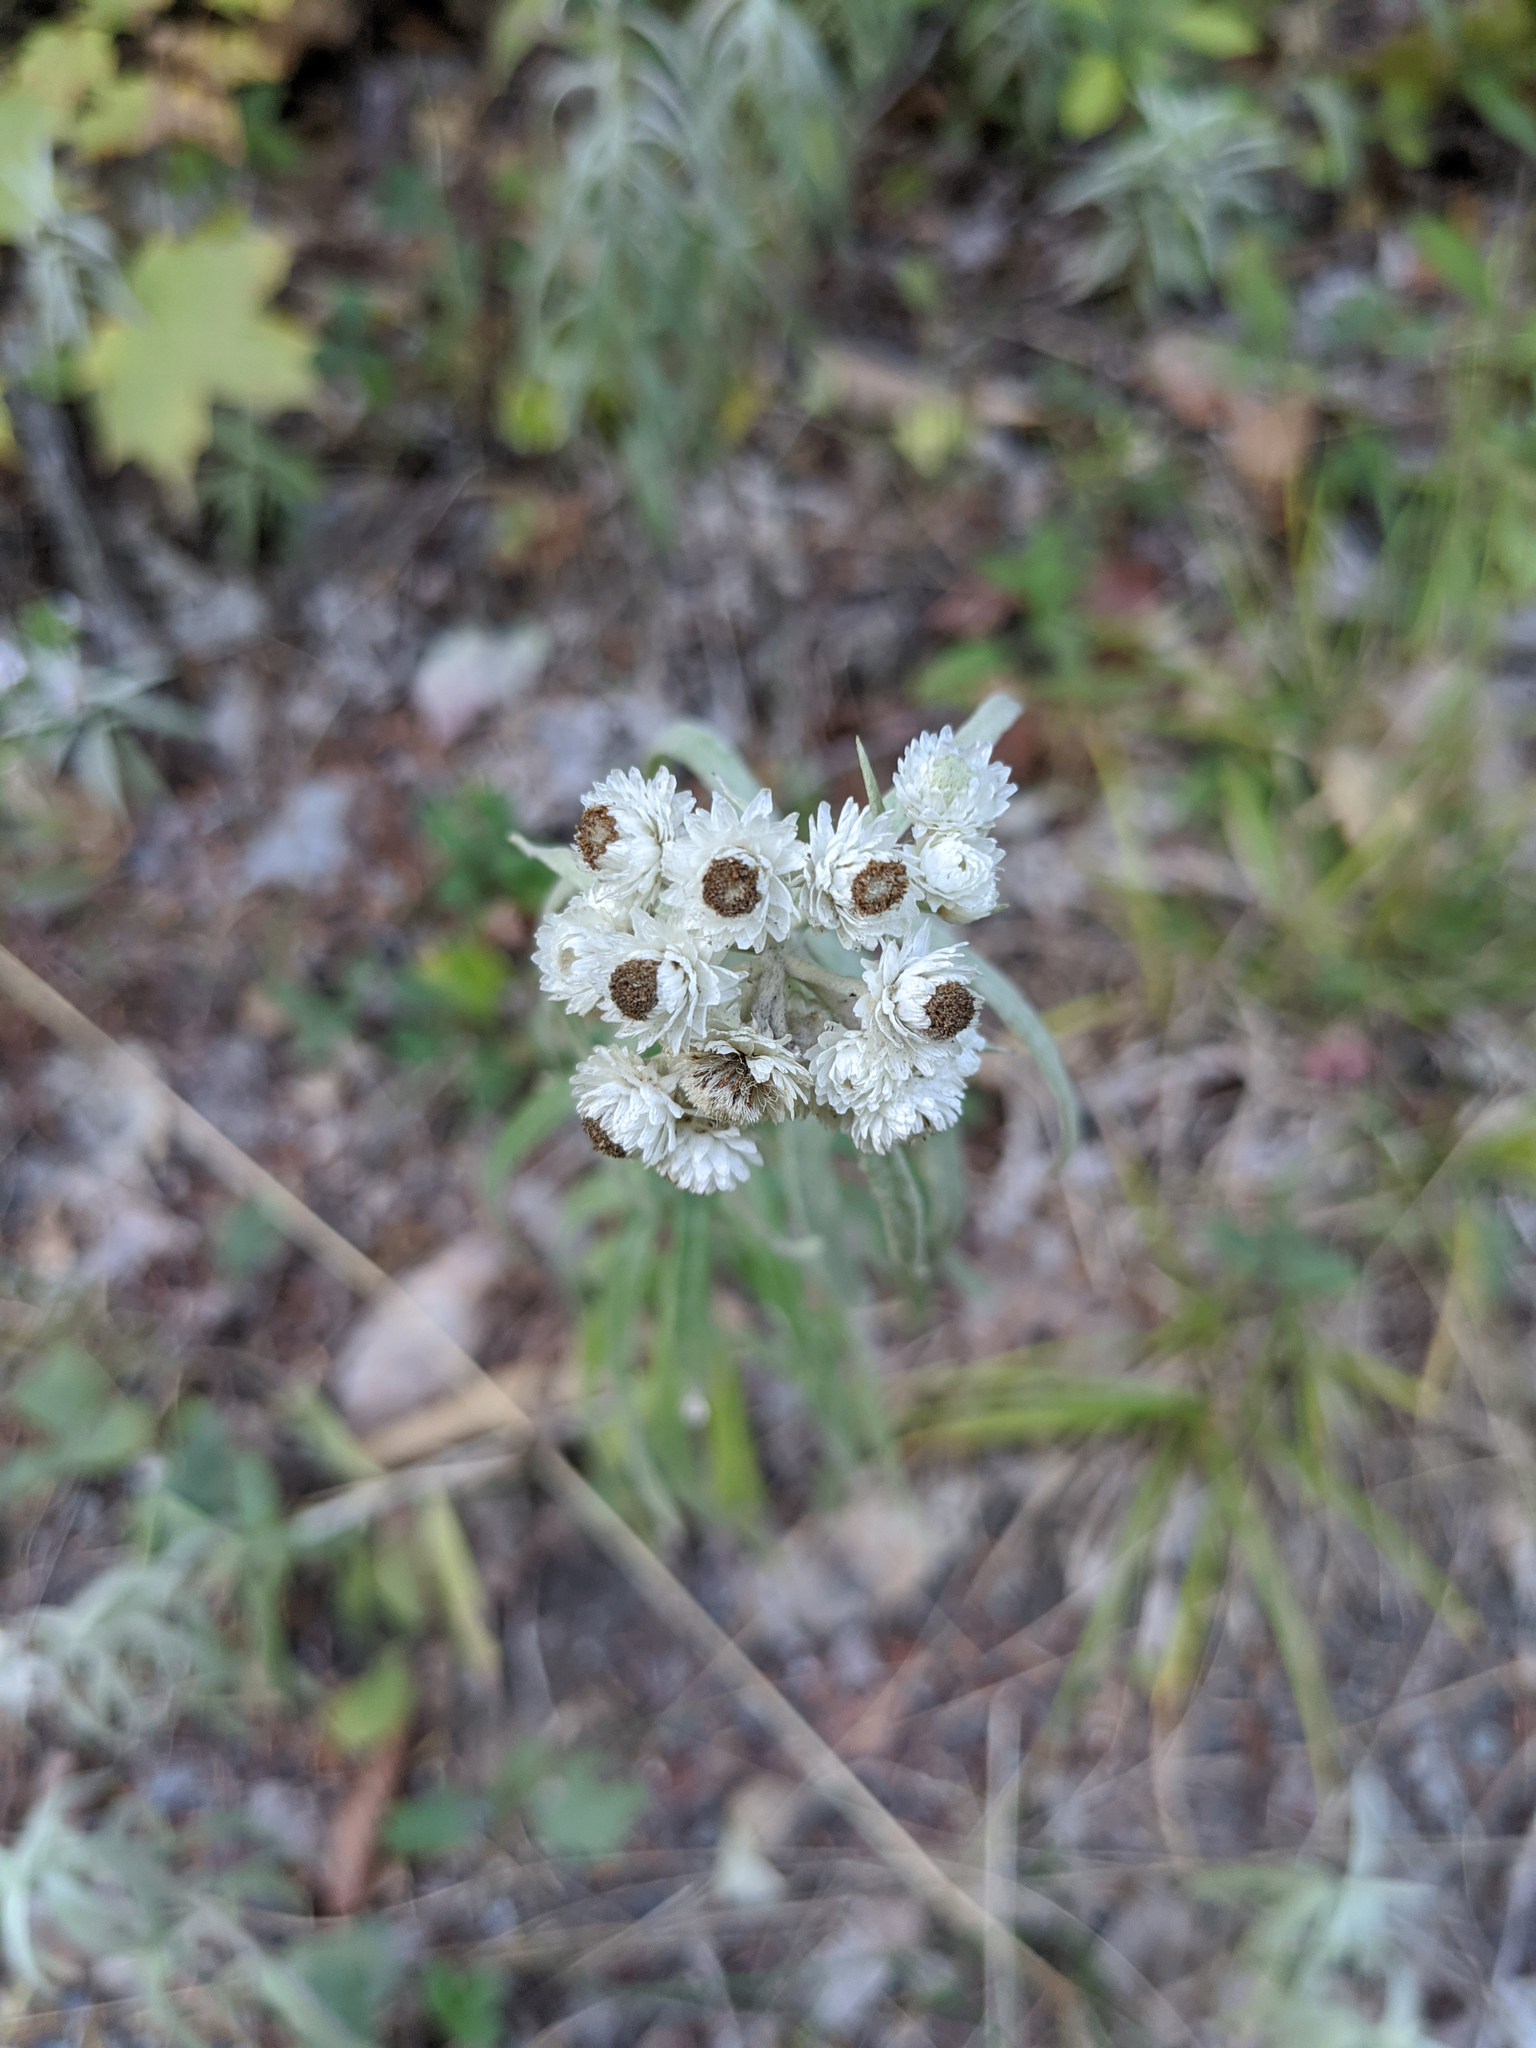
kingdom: Plantae
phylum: Tracheophyta
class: Magnoliopsida
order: Asterales
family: Asteraceae
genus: Anaphalis
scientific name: Anaphalis margaritacea
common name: Pearly everlasting
